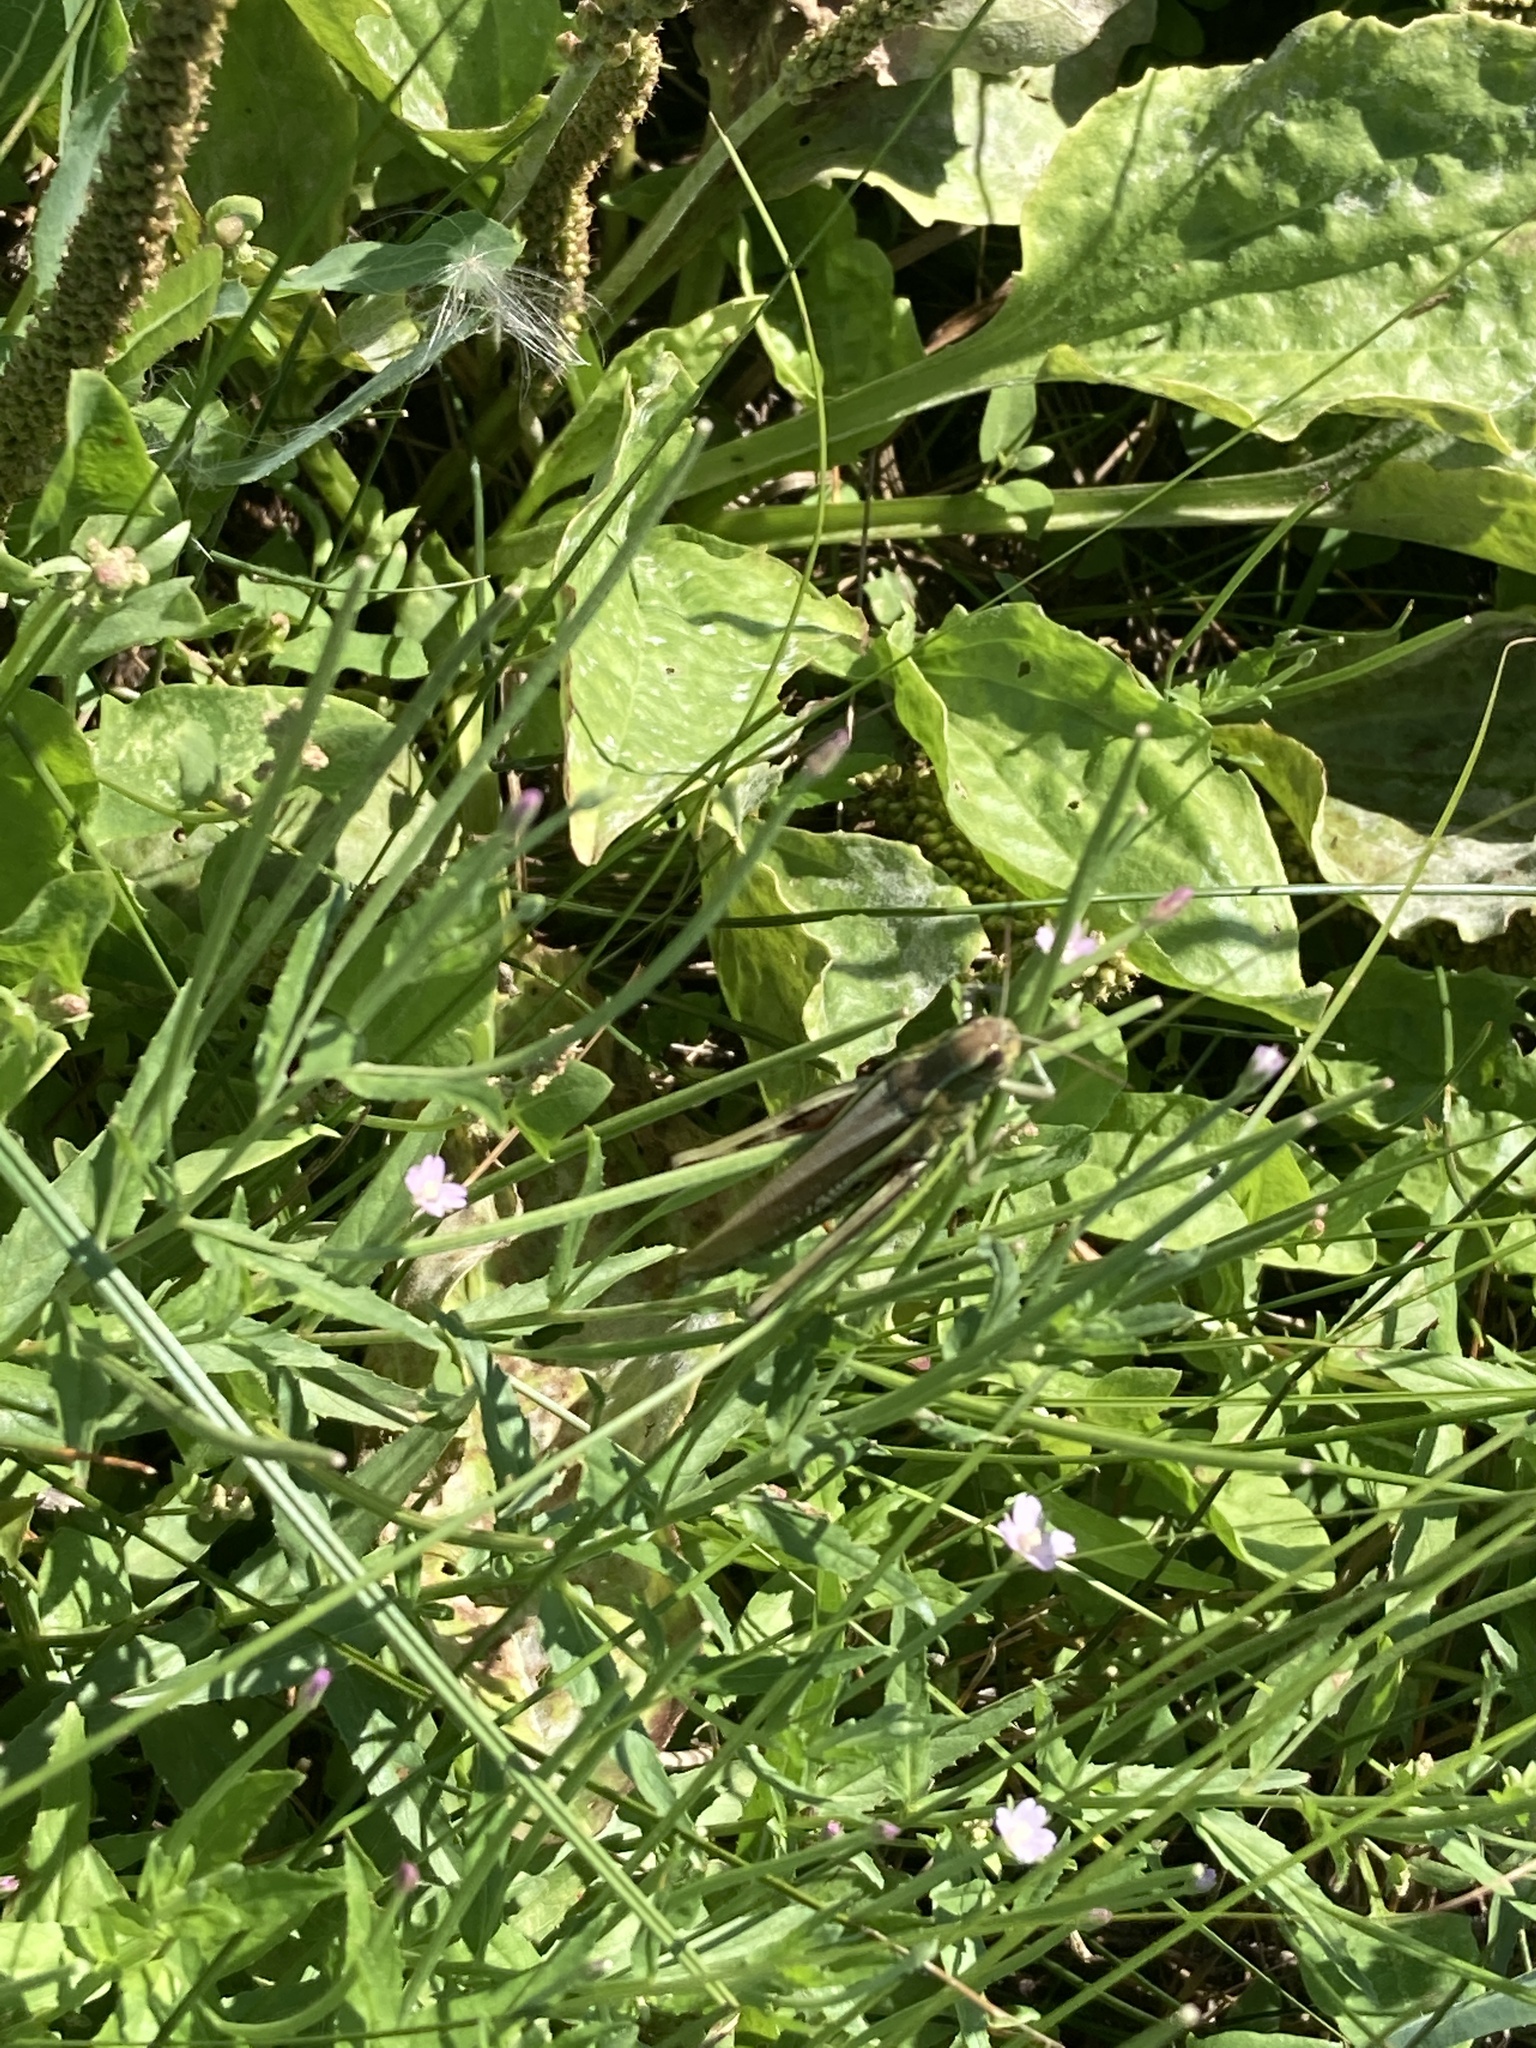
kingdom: Animalia
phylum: Arthropoda
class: Insecta
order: Orthoptera
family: Acrididae
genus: Stethophyma
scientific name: Stethophyma grossum
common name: Large marsh grasshopper
